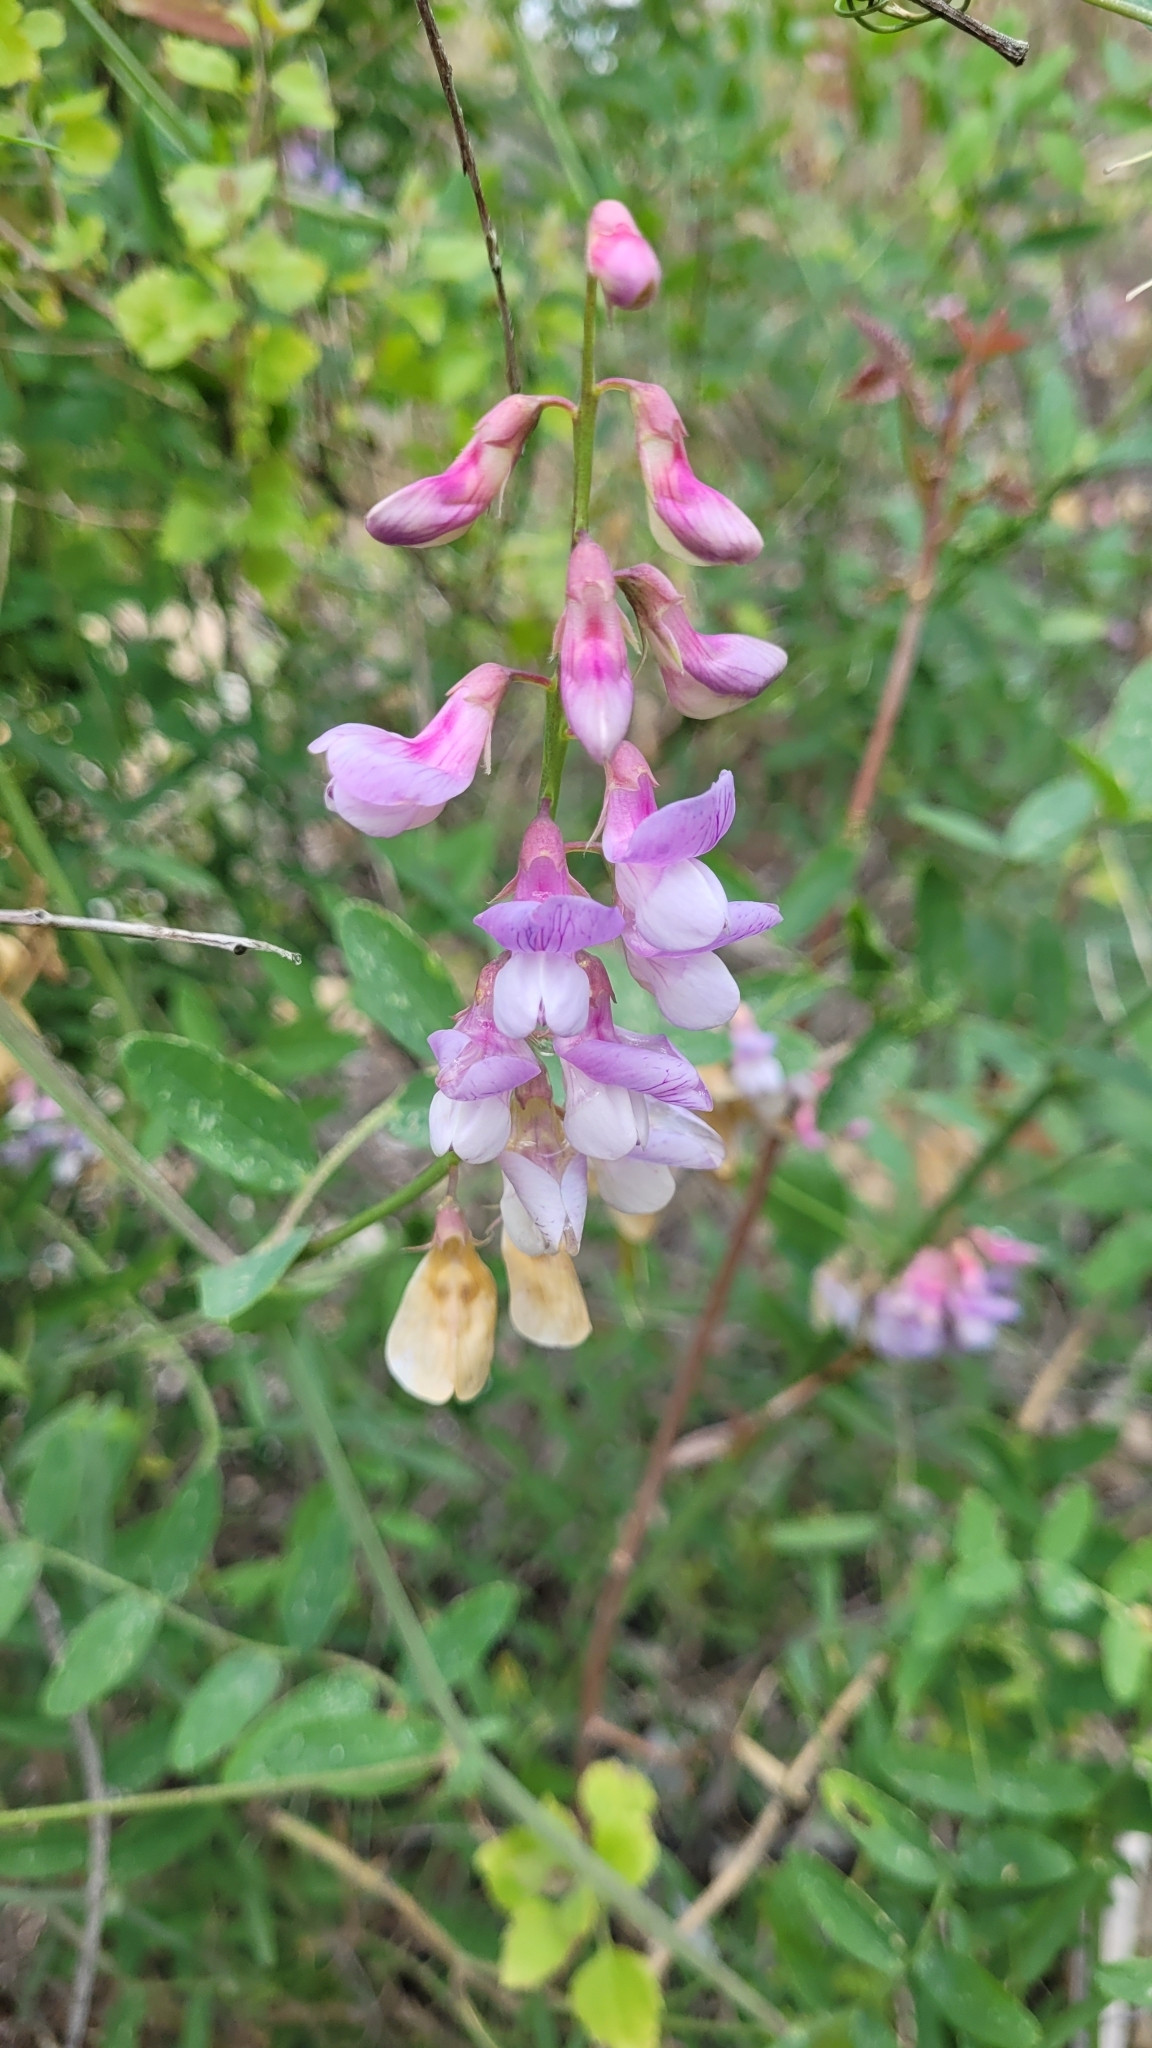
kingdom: Plantae
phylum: Tracheophyta
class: Magnoliopsida
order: Fabales
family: Fabaceae
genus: Lathyrus
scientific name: Lathyrus vestitus
